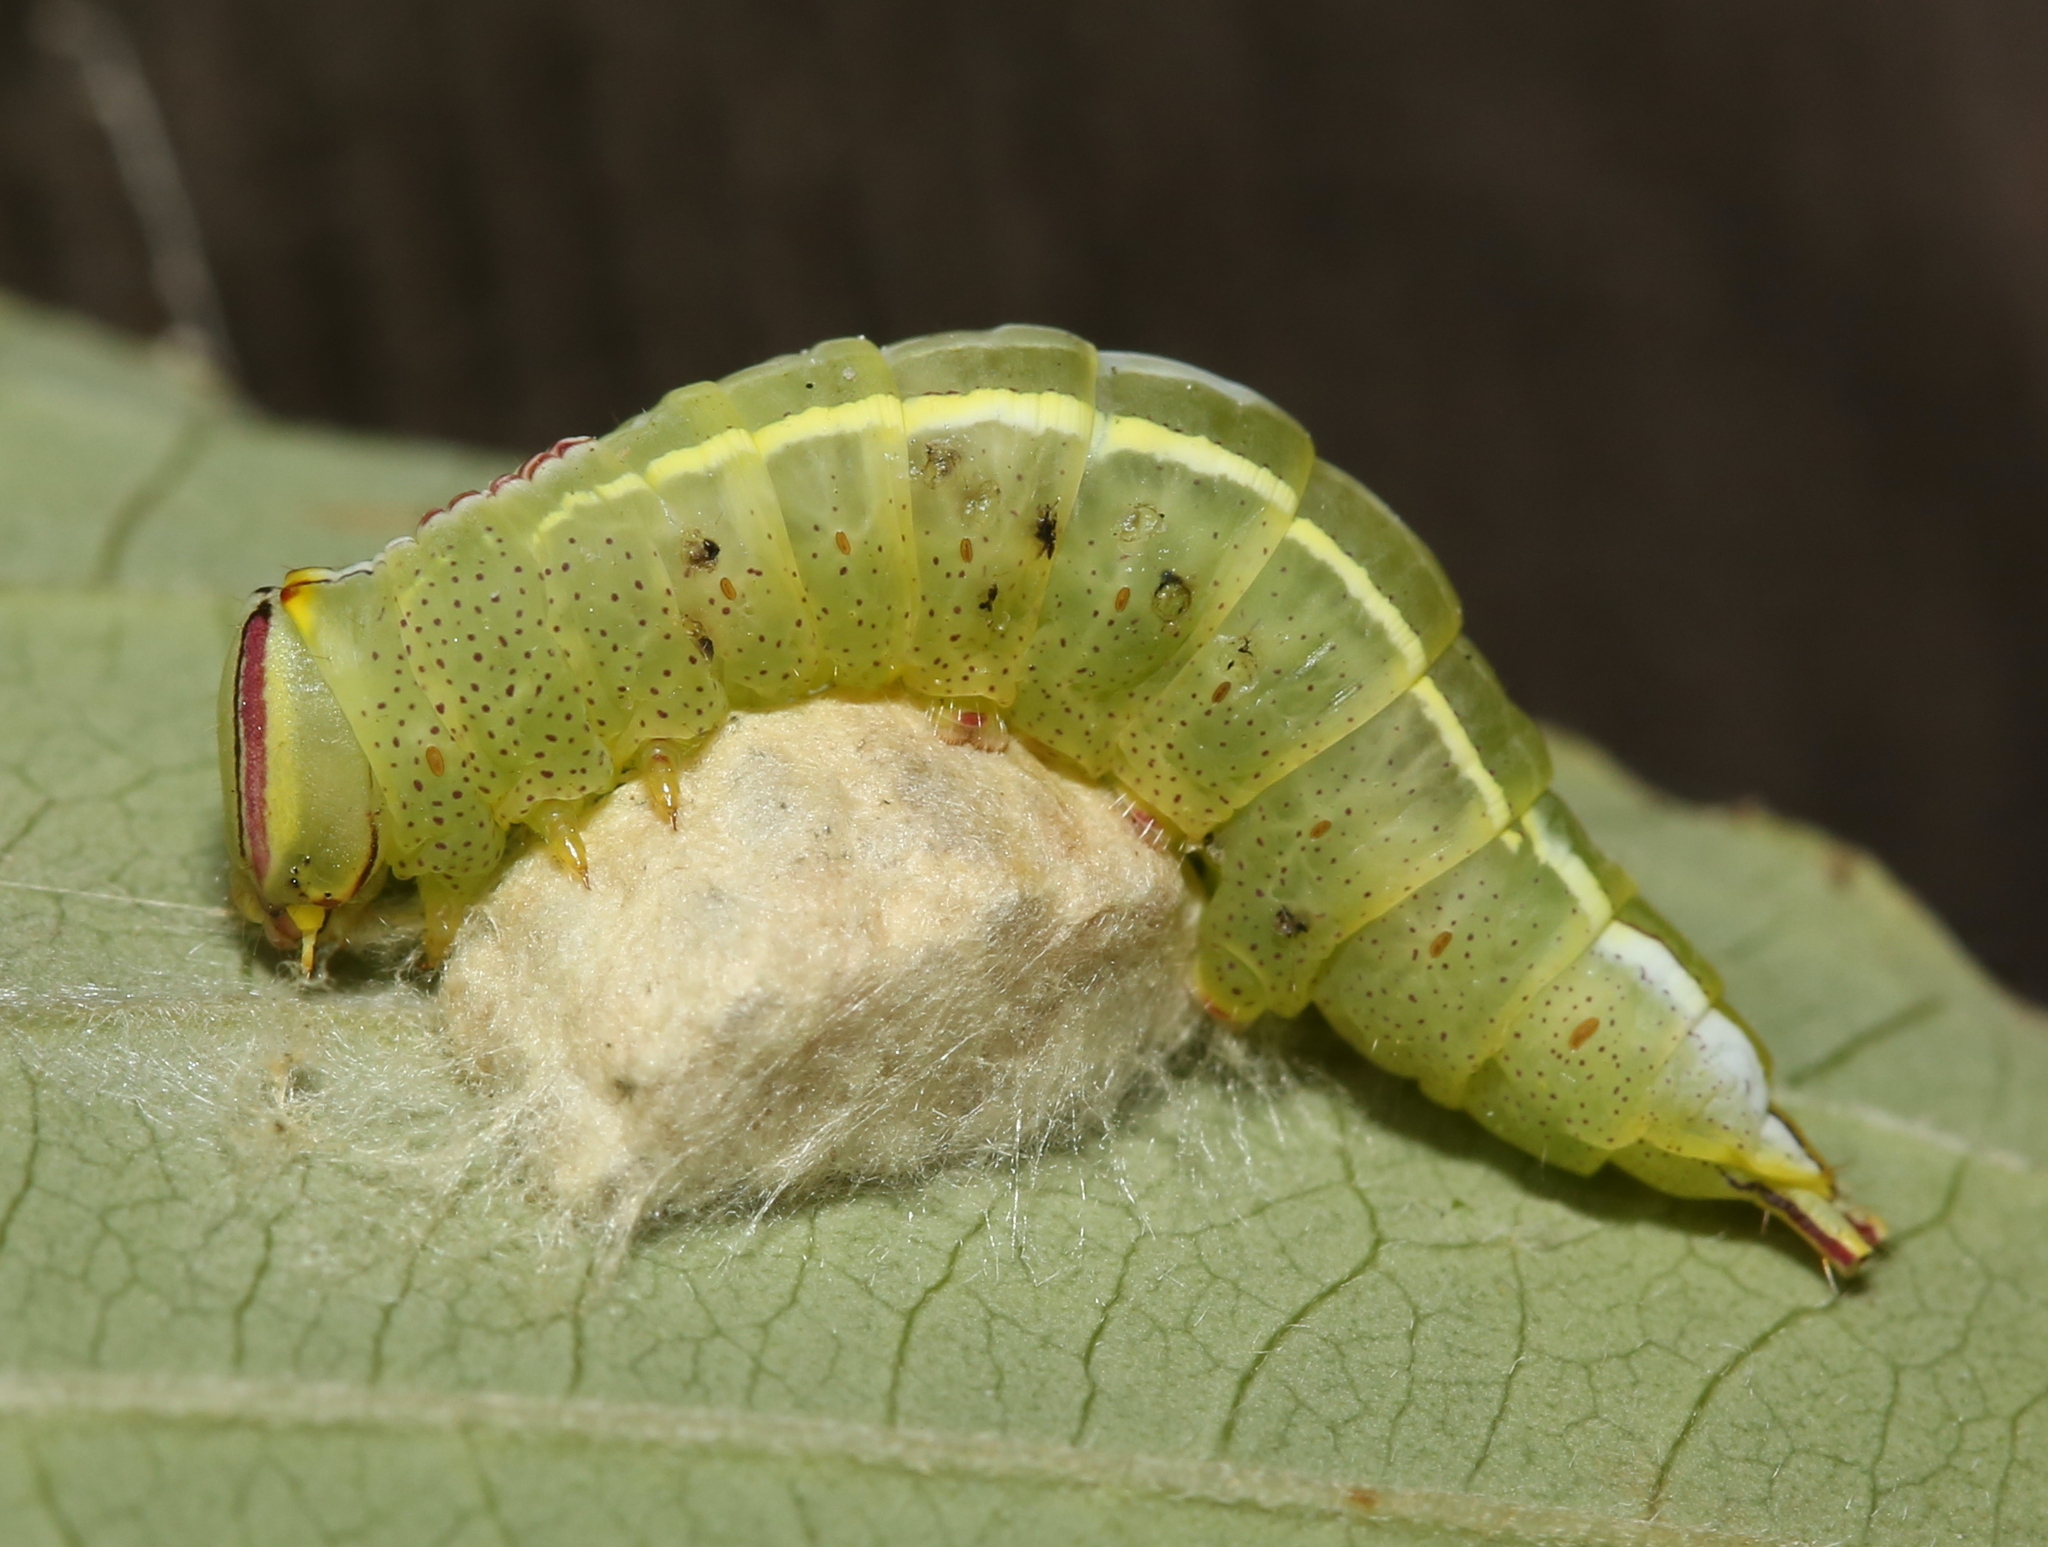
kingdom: Animalia
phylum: Arthropoda
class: Insecta
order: Lepidoptera
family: Notodontidae
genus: Disphragis
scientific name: Disphragis Cecrita guttivitta
